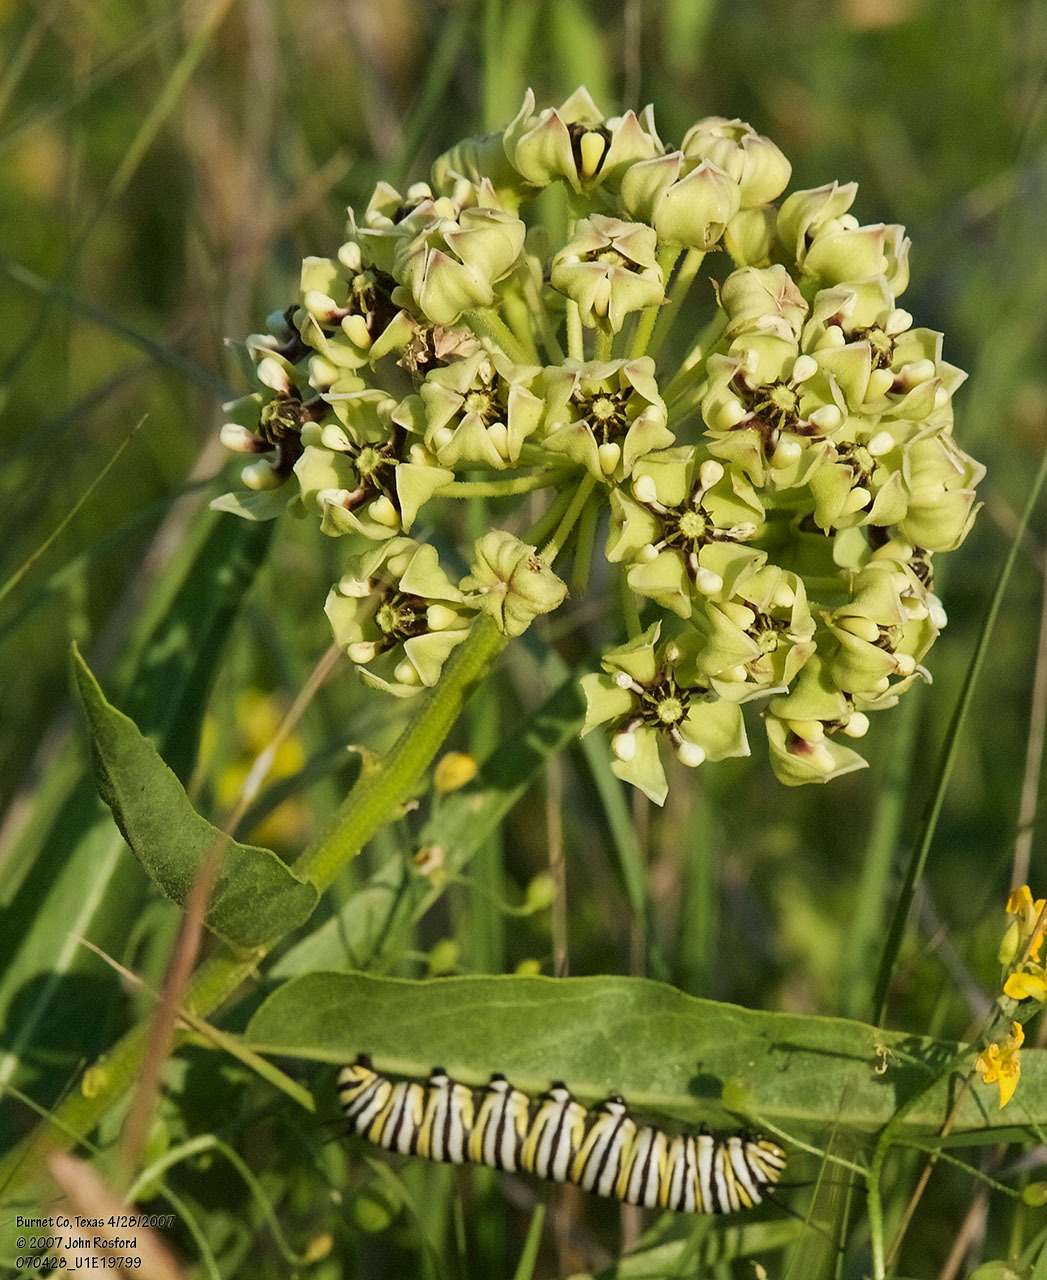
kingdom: Plantae
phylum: Tracheophyta
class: Magnoliopsida
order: Gentianales
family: Apocynaceae
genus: Asclepias
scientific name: Asclepias asperula
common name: Antelope horns
